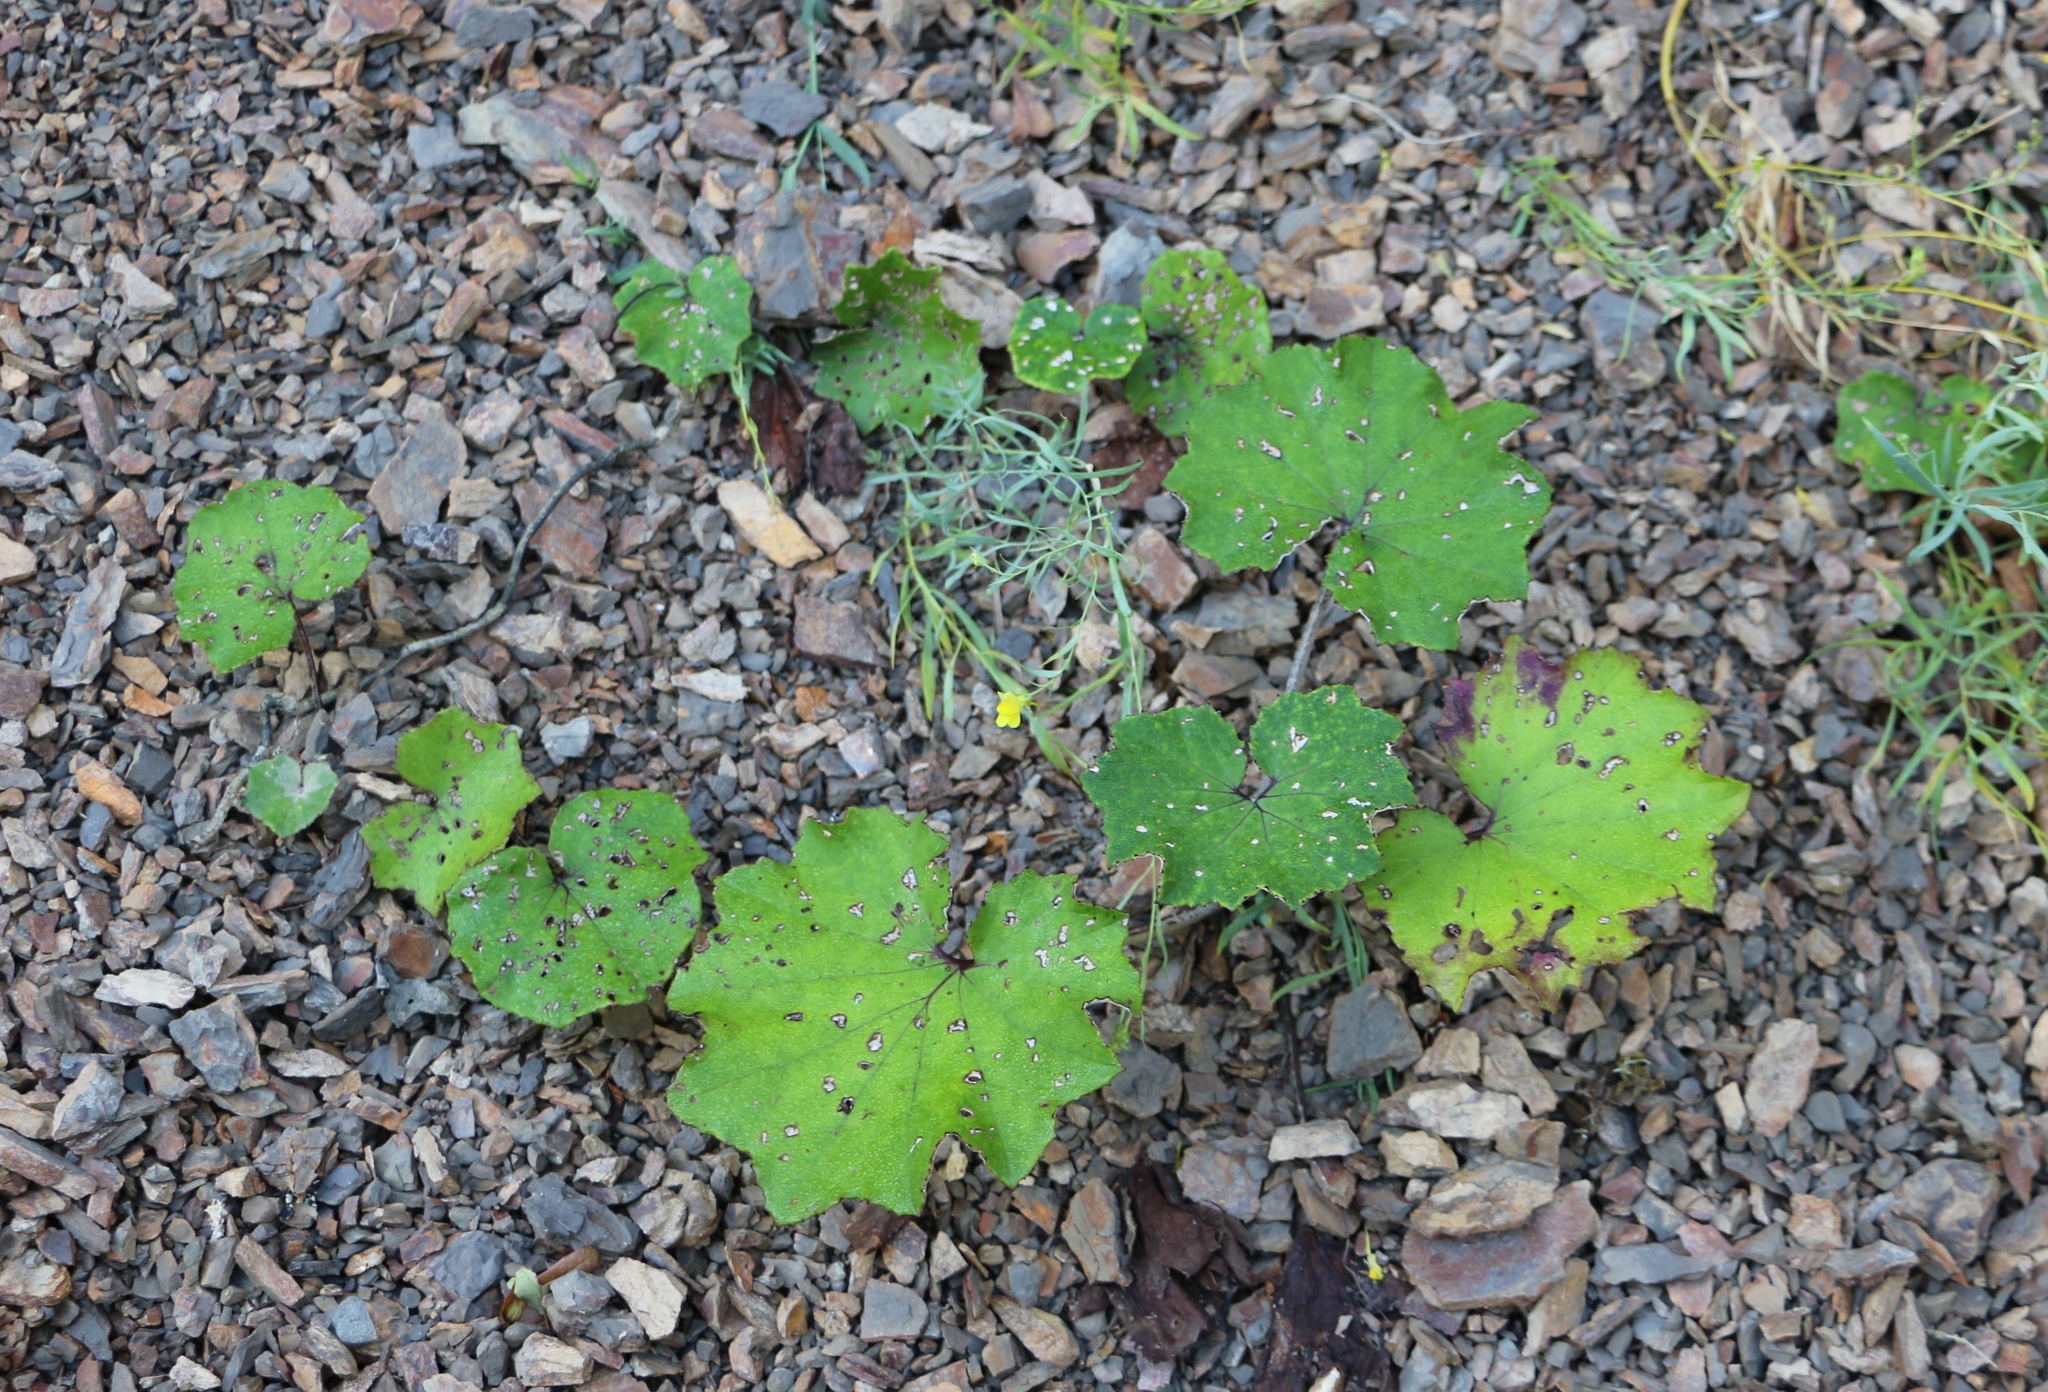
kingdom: Plantae
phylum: Tracheophyta
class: Magnoliopsida
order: Asterales
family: Asteraceae
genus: Tussilago
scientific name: Tussilago farfara
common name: Coltsfoot
